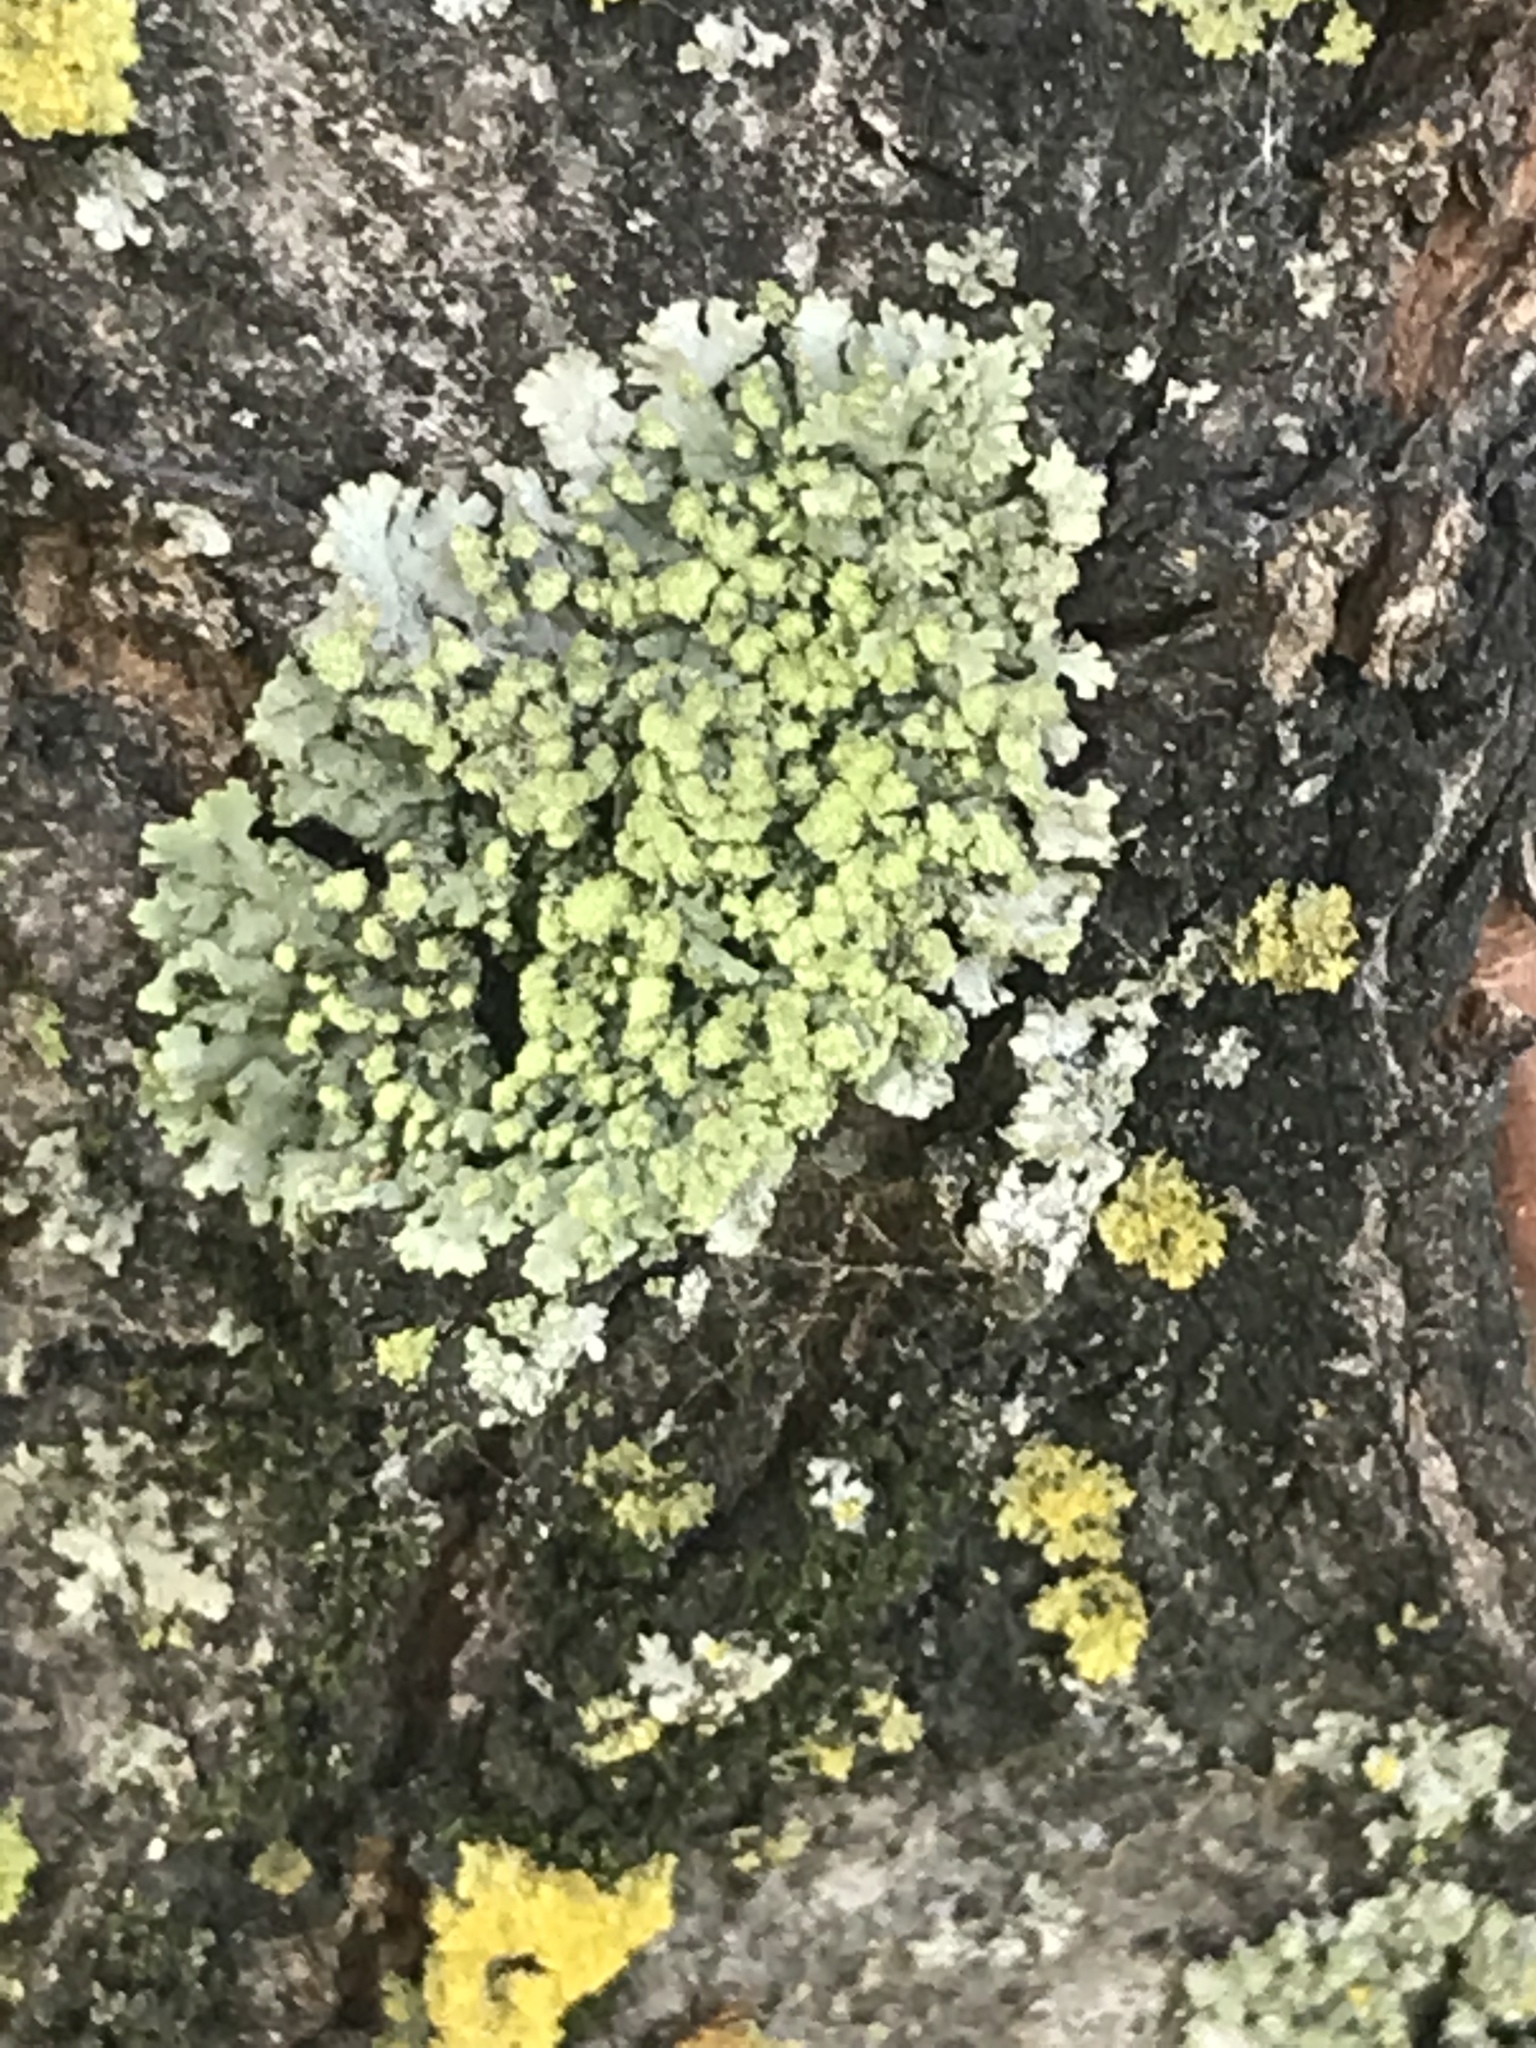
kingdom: Fungi
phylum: Ascomycota
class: Lecanoromycetes
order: Caliciales
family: Physciaceae
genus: Phaeophyscia
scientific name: Phaeophyscia rubropulchra
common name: Orange-cored shadow lichen
